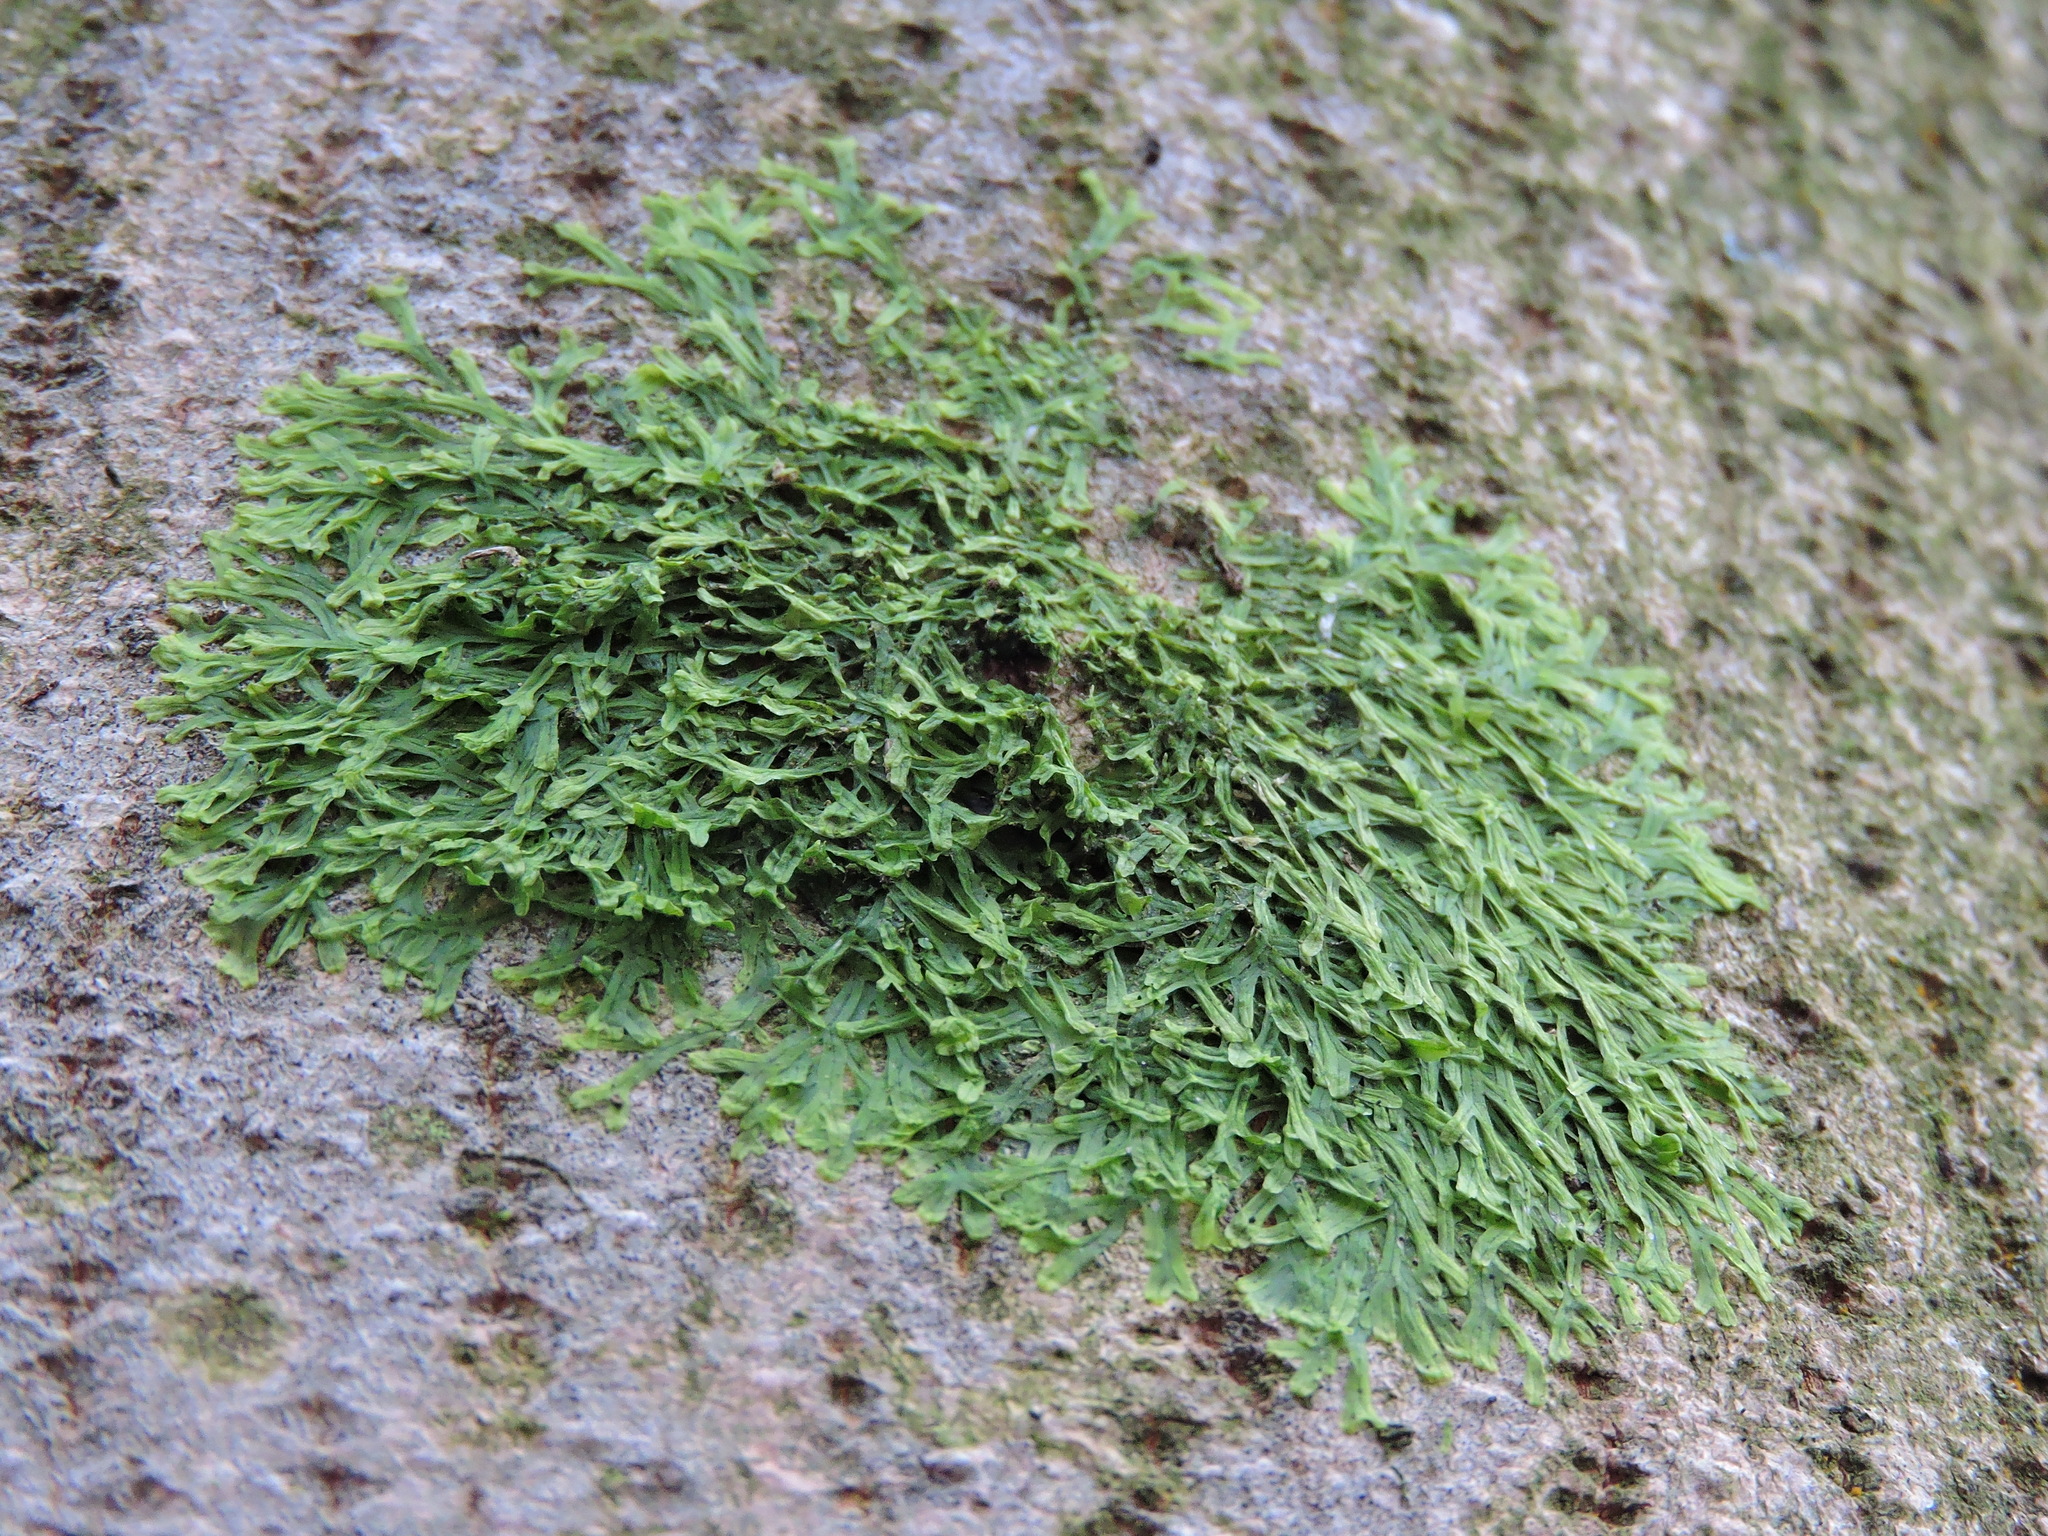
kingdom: Plantae
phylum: Marchantiophyta
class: Jungermanniopsida
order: Metzgeriales
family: Metzgeriaceae
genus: Metzgeria
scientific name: Metzgeria furcata
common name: Forked veilwort
